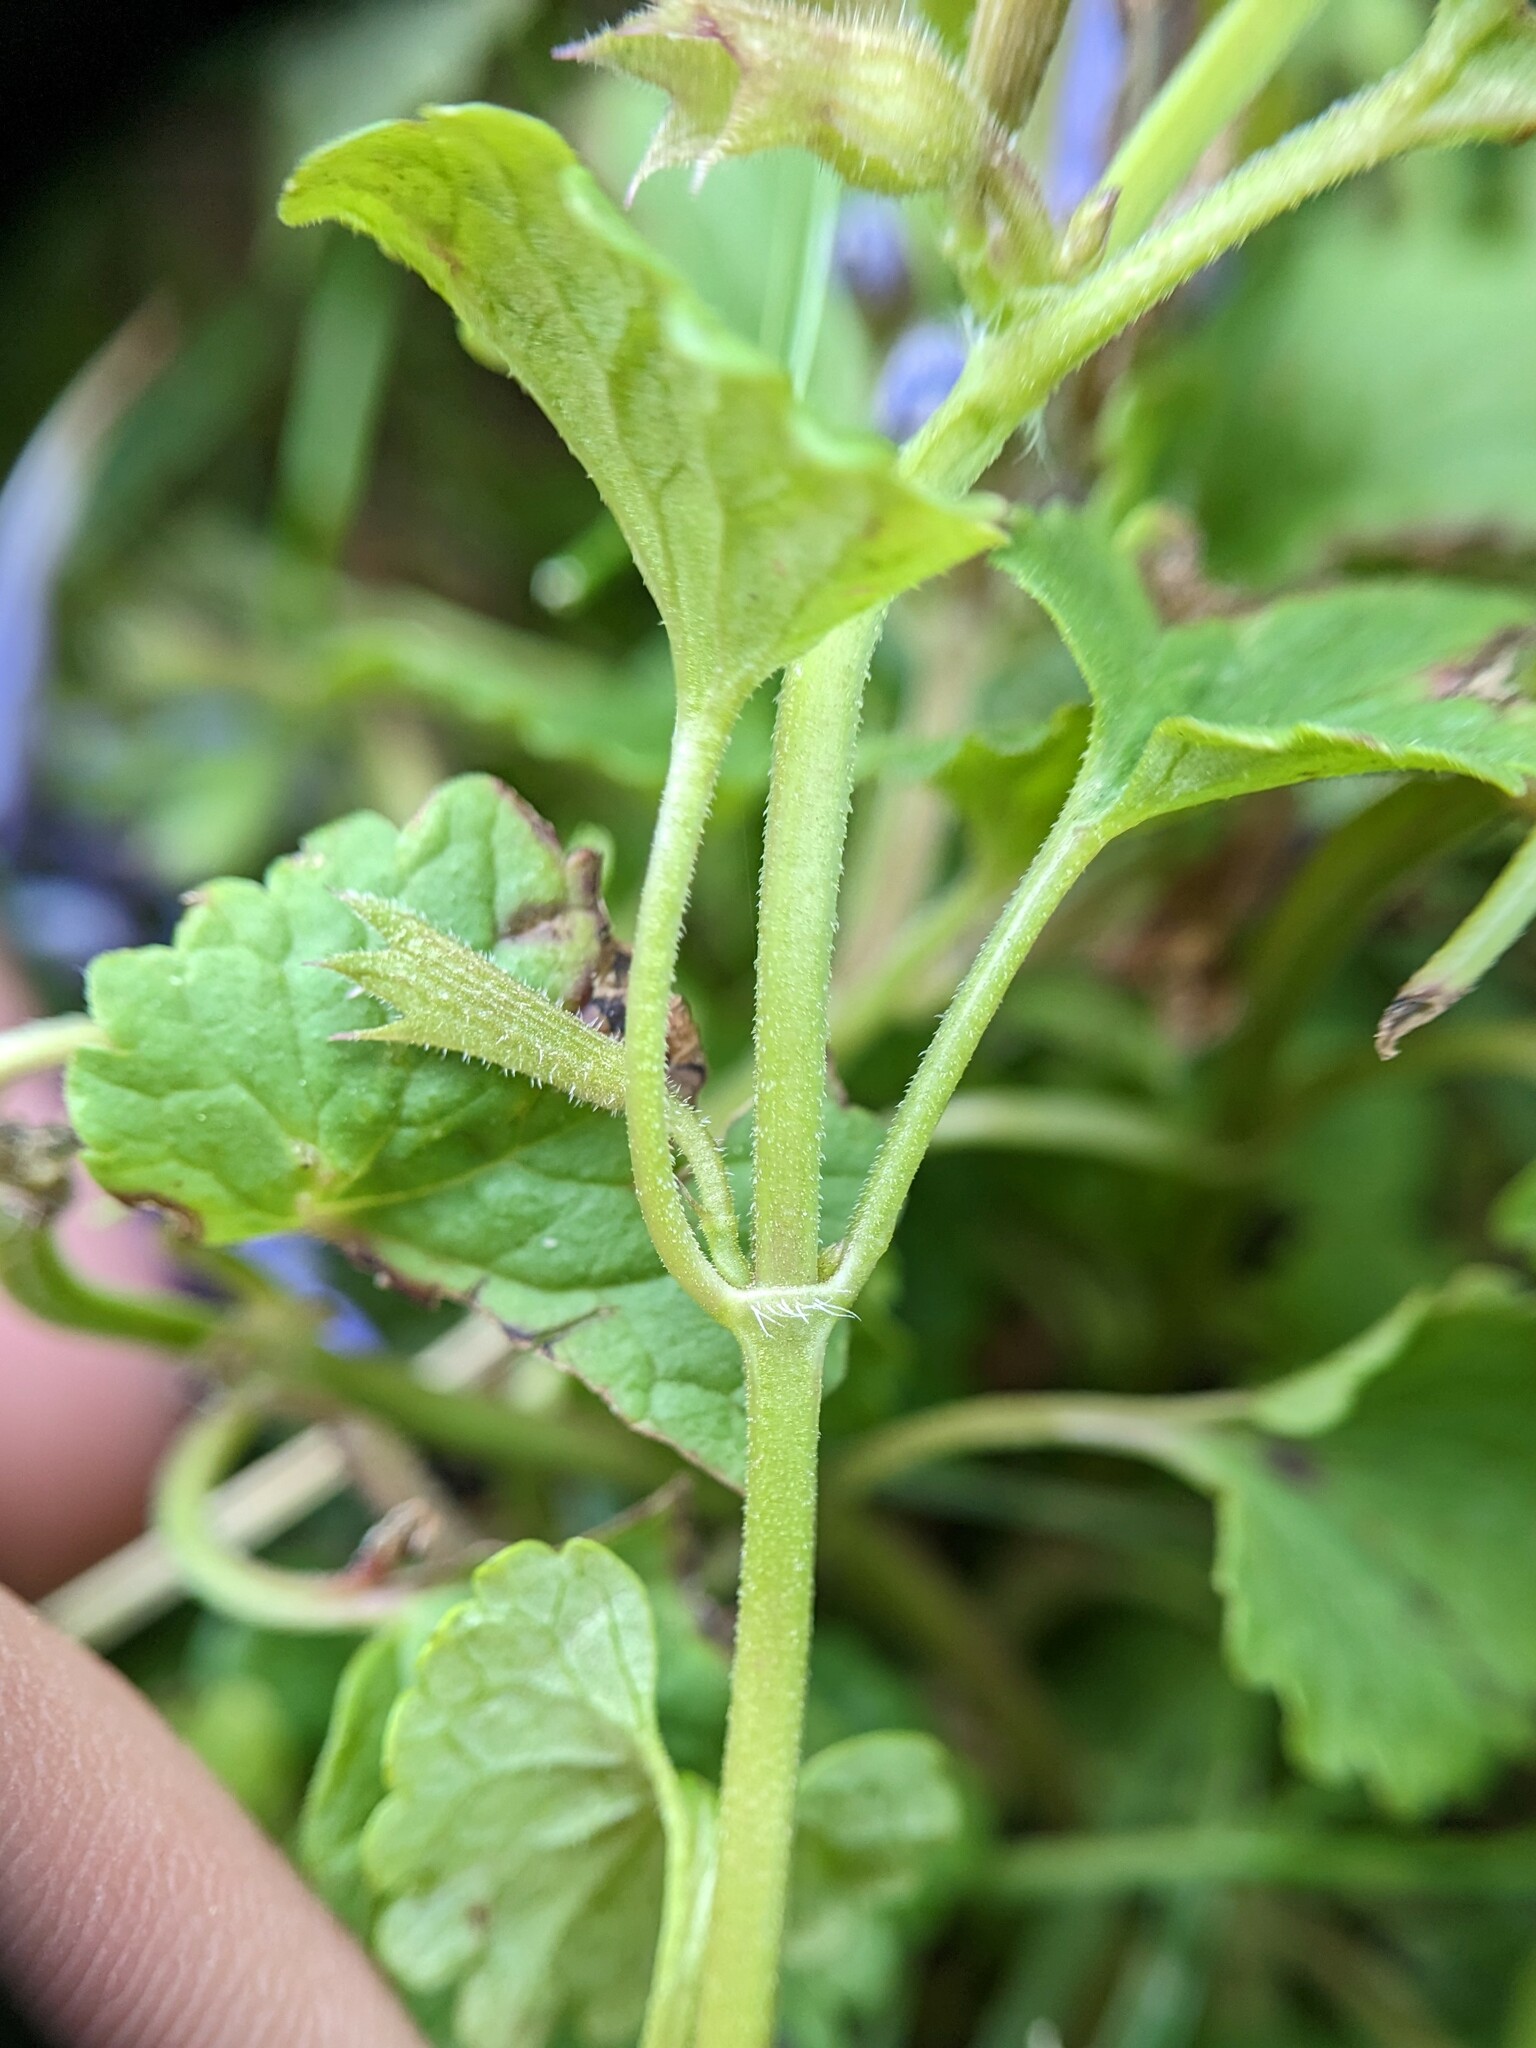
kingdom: Plantae
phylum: Tracheophyta
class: Magnoliopsida
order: Lamiales
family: Lamiaceae
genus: Glechoma
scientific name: Glechoma hederacea
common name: Ground ivy
